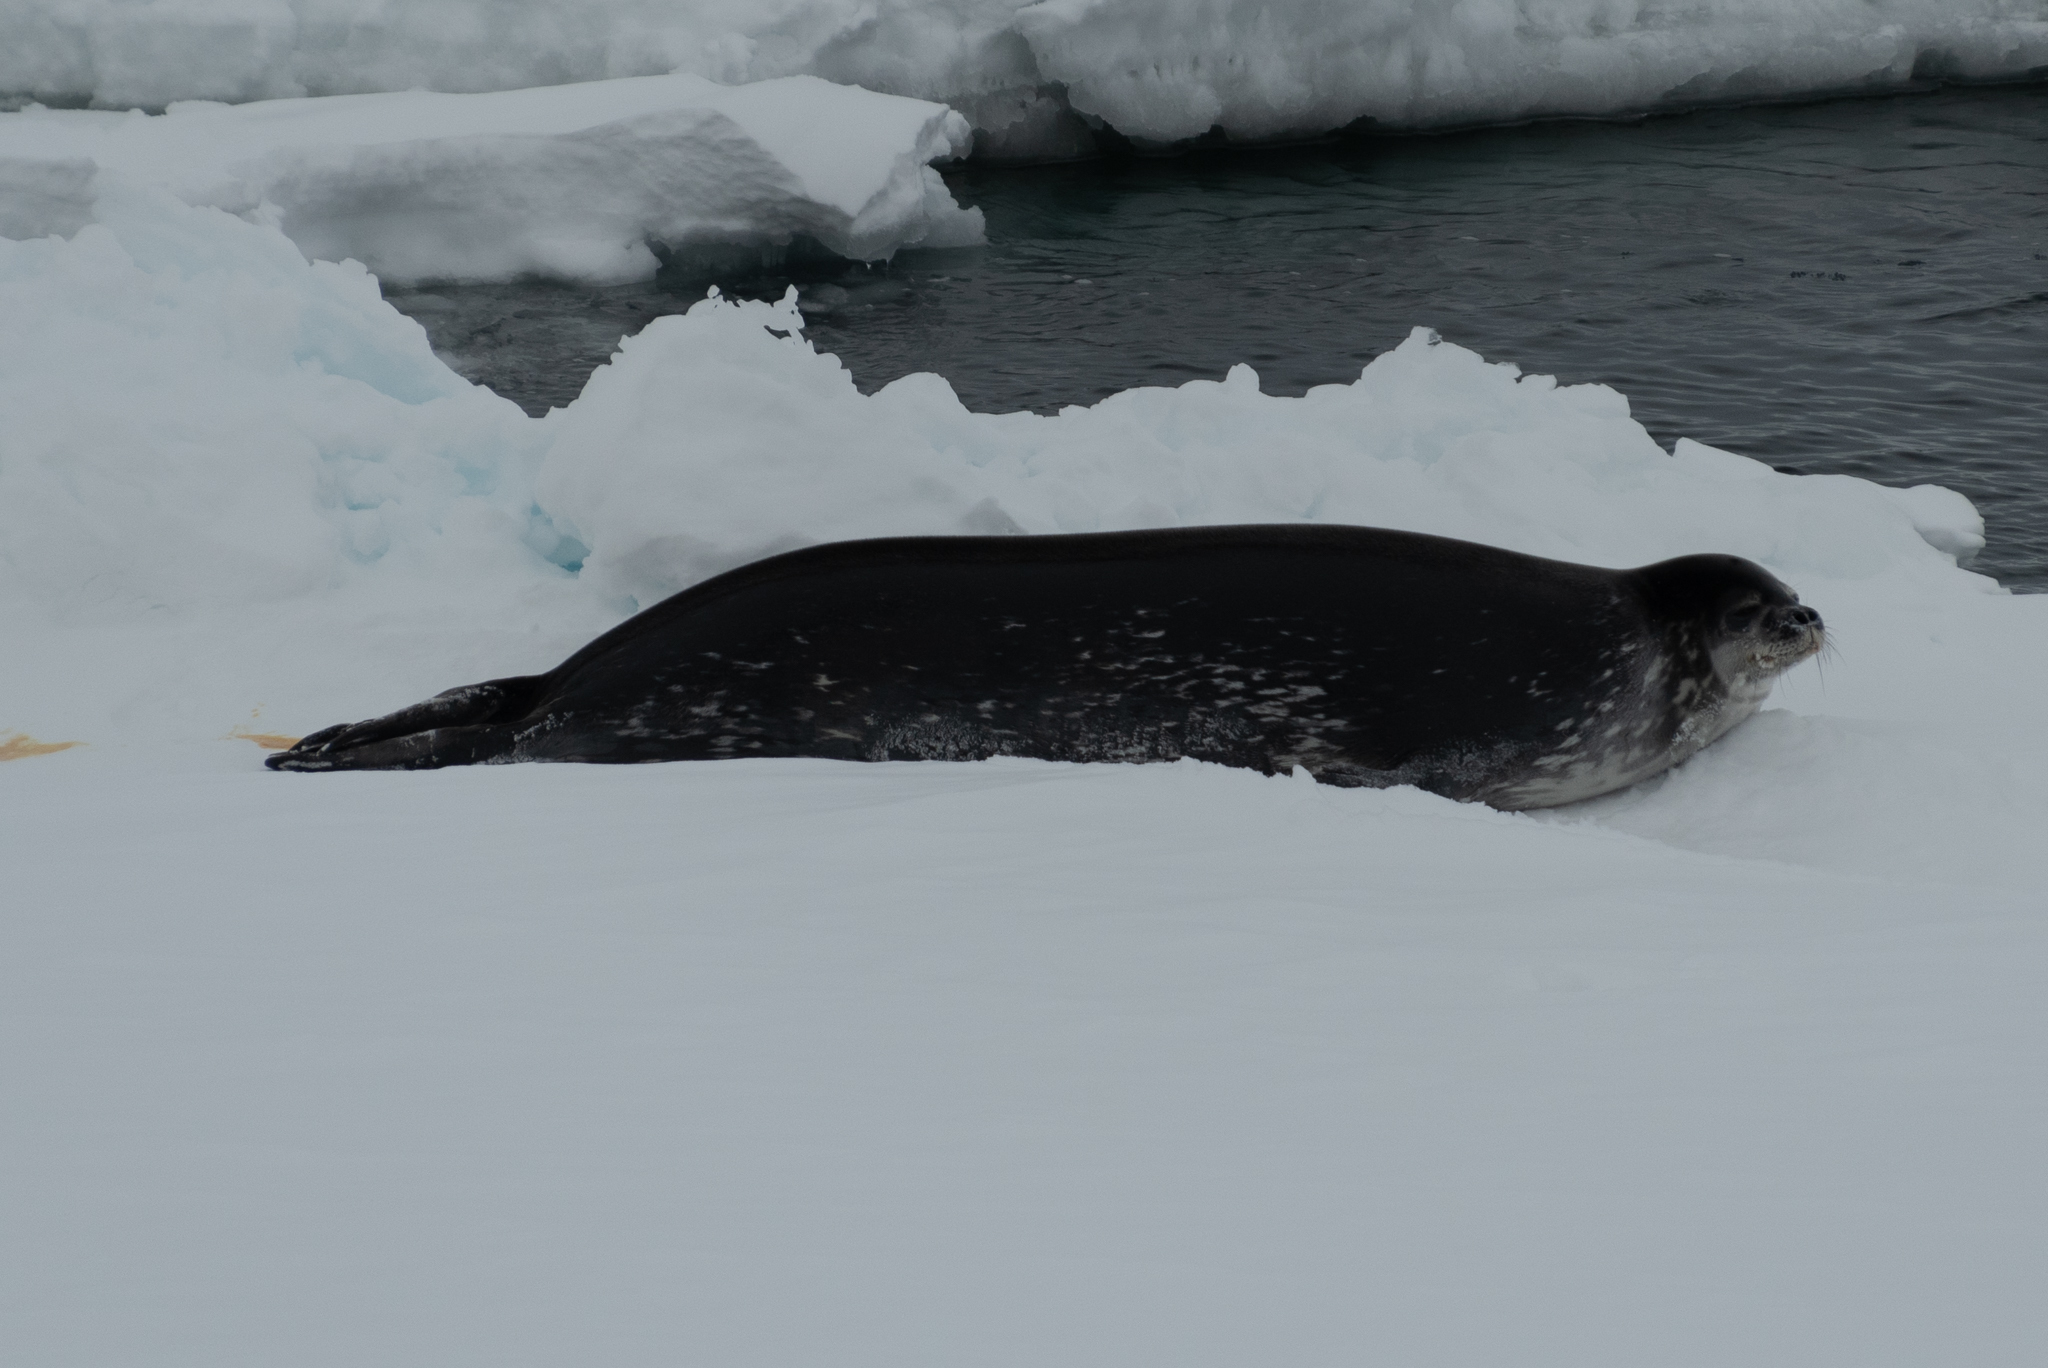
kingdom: Animalia
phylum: Chordata
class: Mammalia
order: Carnivora
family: Phocidae
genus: Leptonychotes
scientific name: Leptonychotes weddellii
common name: Weddell seal
